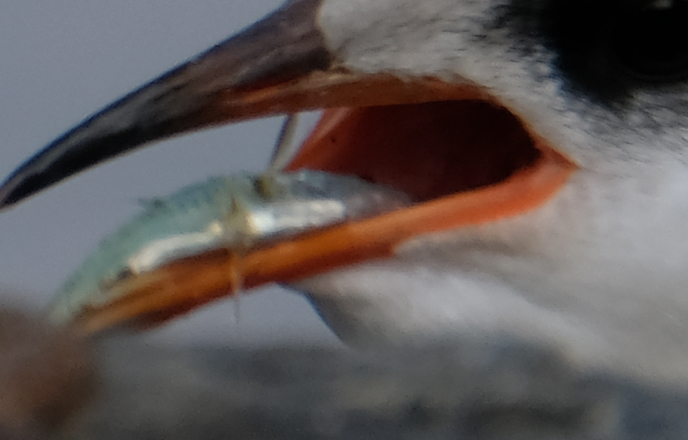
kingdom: Animalia
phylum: Chordata
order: Gasterosteiformes
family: Gasterosteidae
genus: Gasterosteus
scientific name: Gasterosteus aculeatus
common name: Three-spined stickleback
